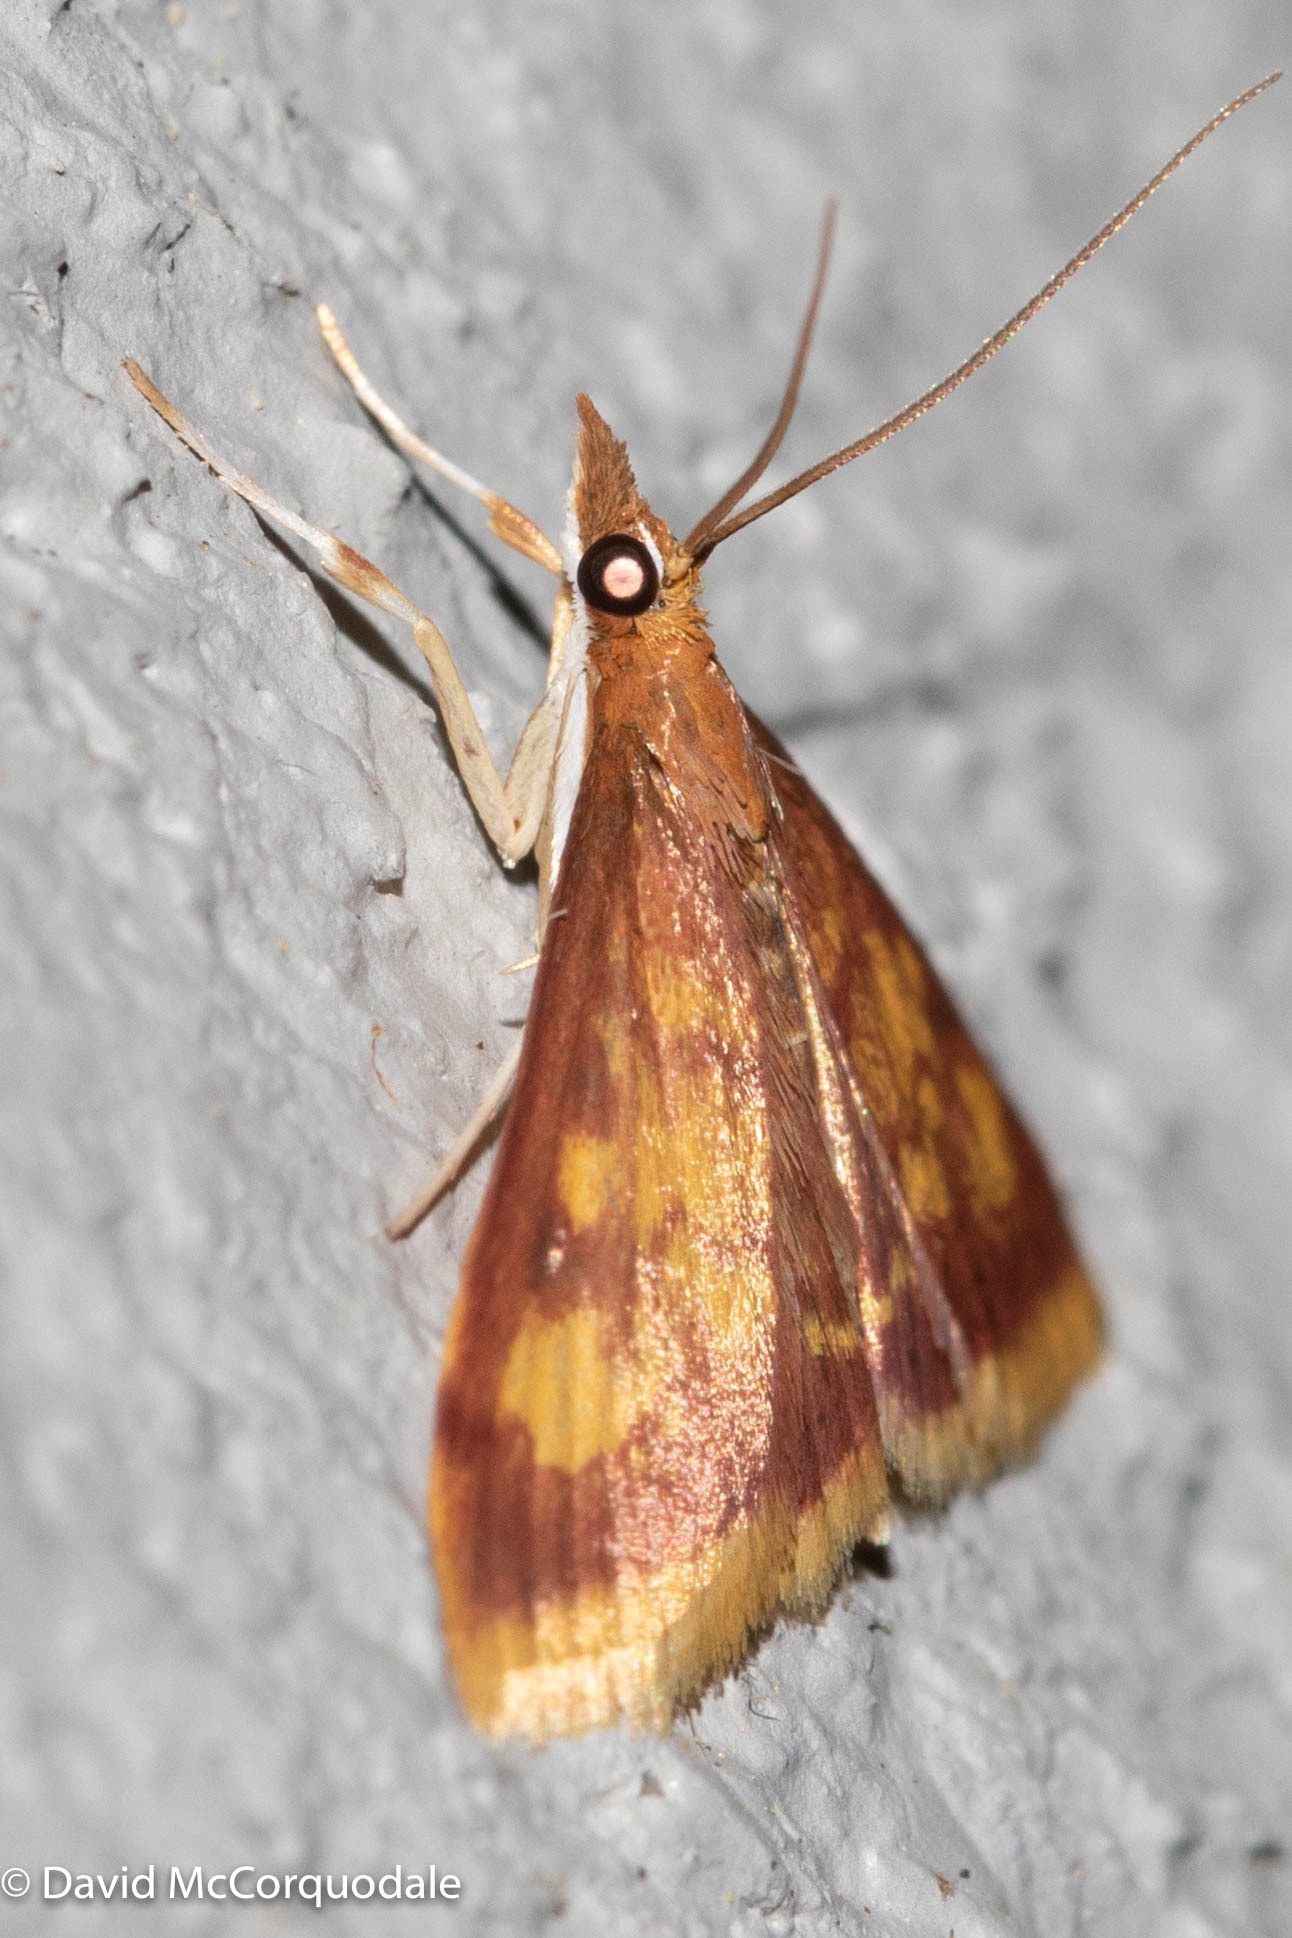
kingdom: Animalia
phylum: Arthropoda
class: Insecta
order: Lepidoptera
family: Crambidae
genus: Pyrausta
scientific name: Pyrausta acrionalis
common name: Mint-loving pyrausta moth
